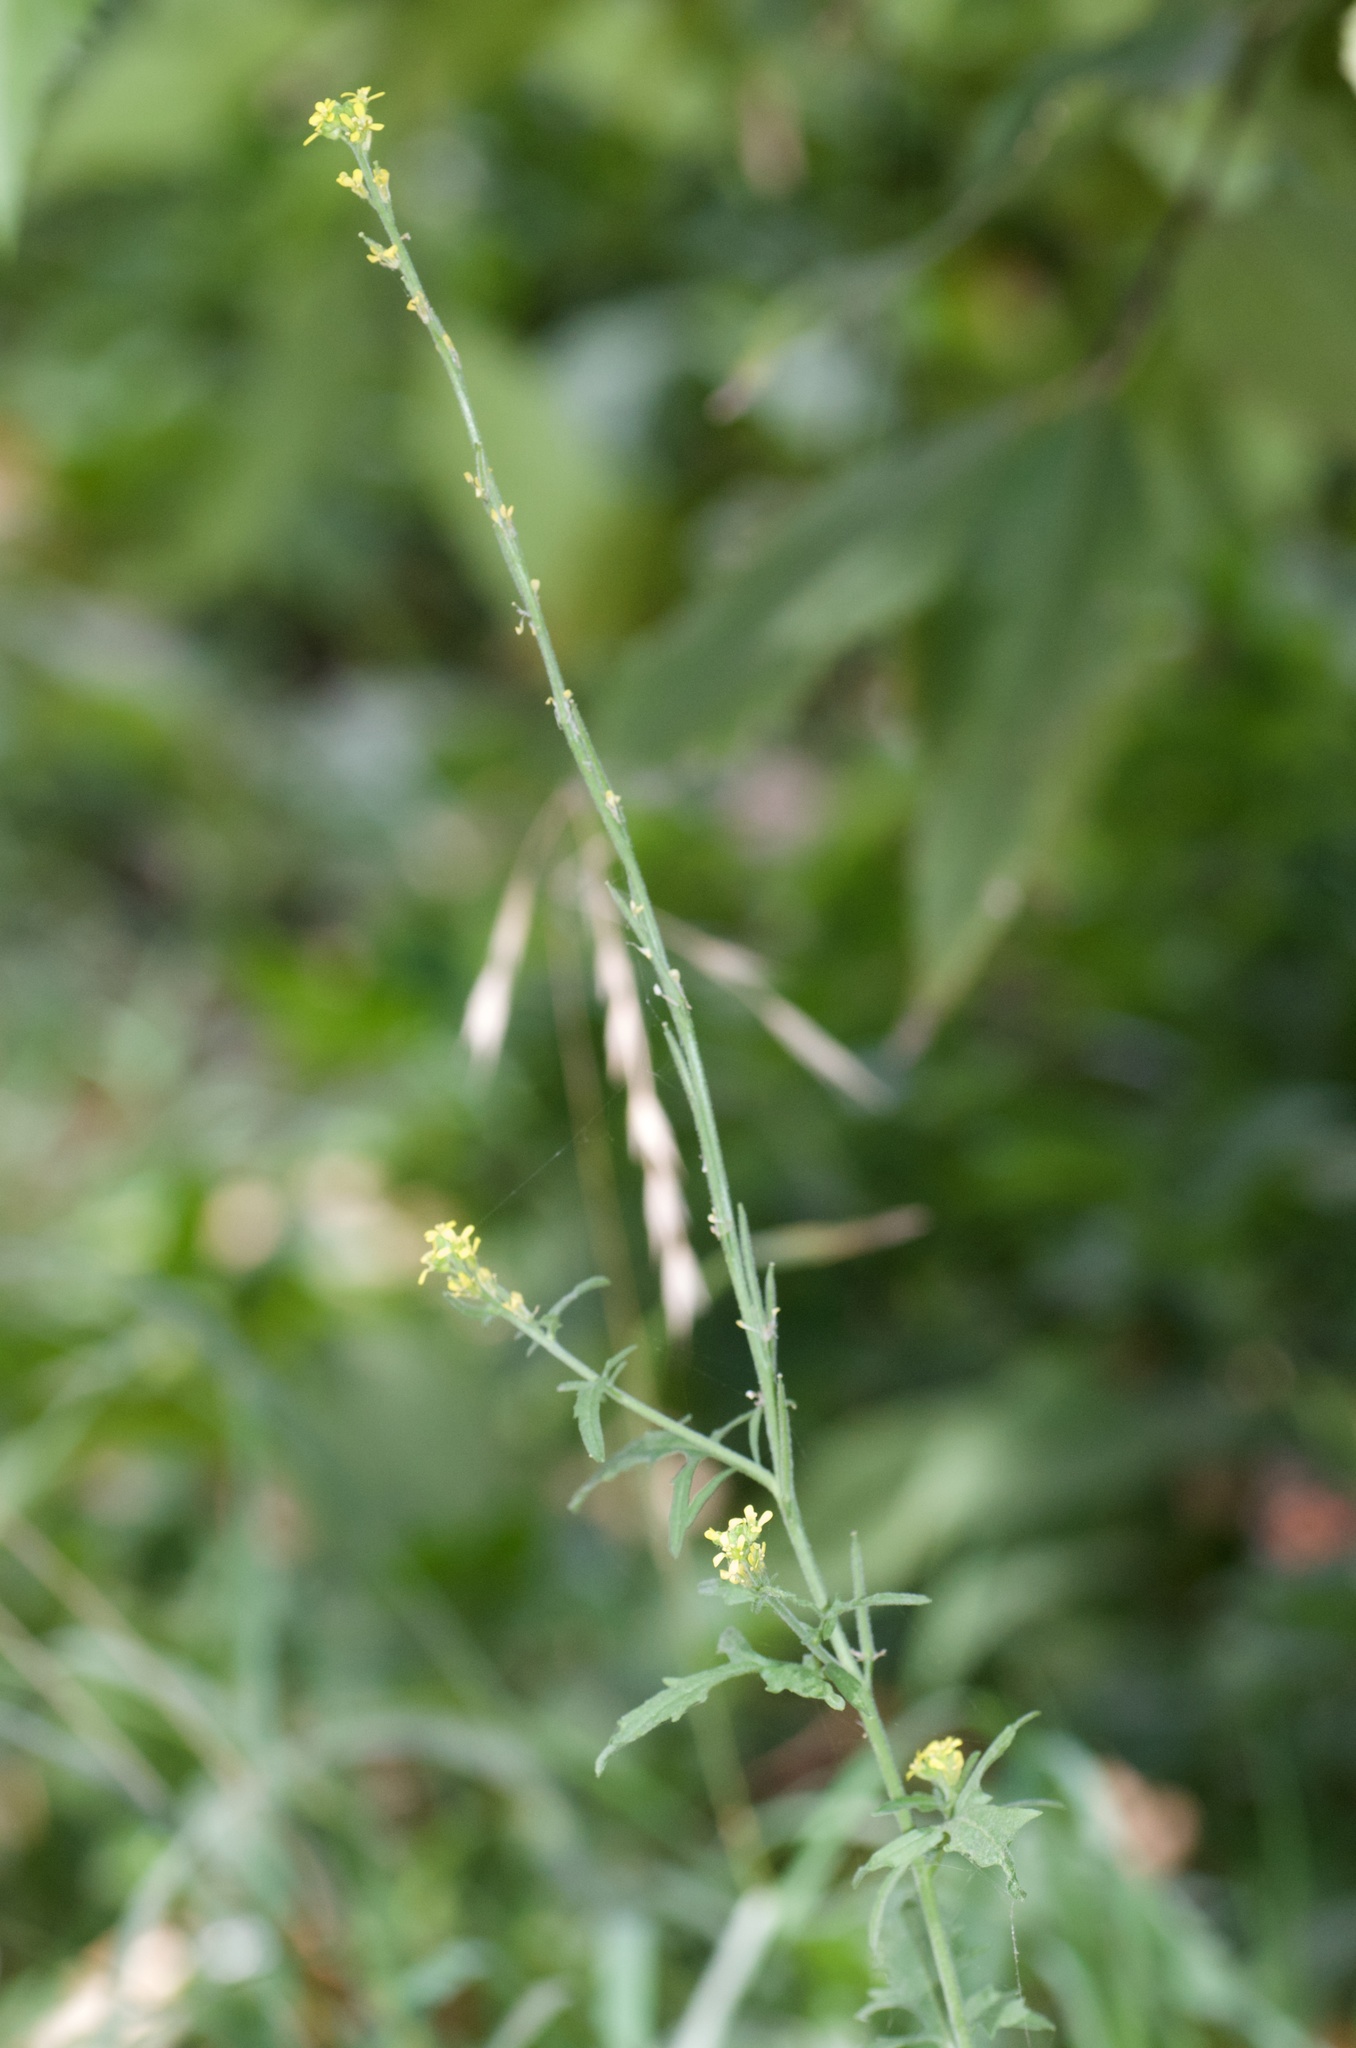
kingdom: Plantae
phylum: Tracheophyta
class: Magnoliopsida
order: Brassicales
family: Brassicaceae
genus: Sisymbrium
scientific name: Sisymbrium officinale
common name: Hedge mustard
